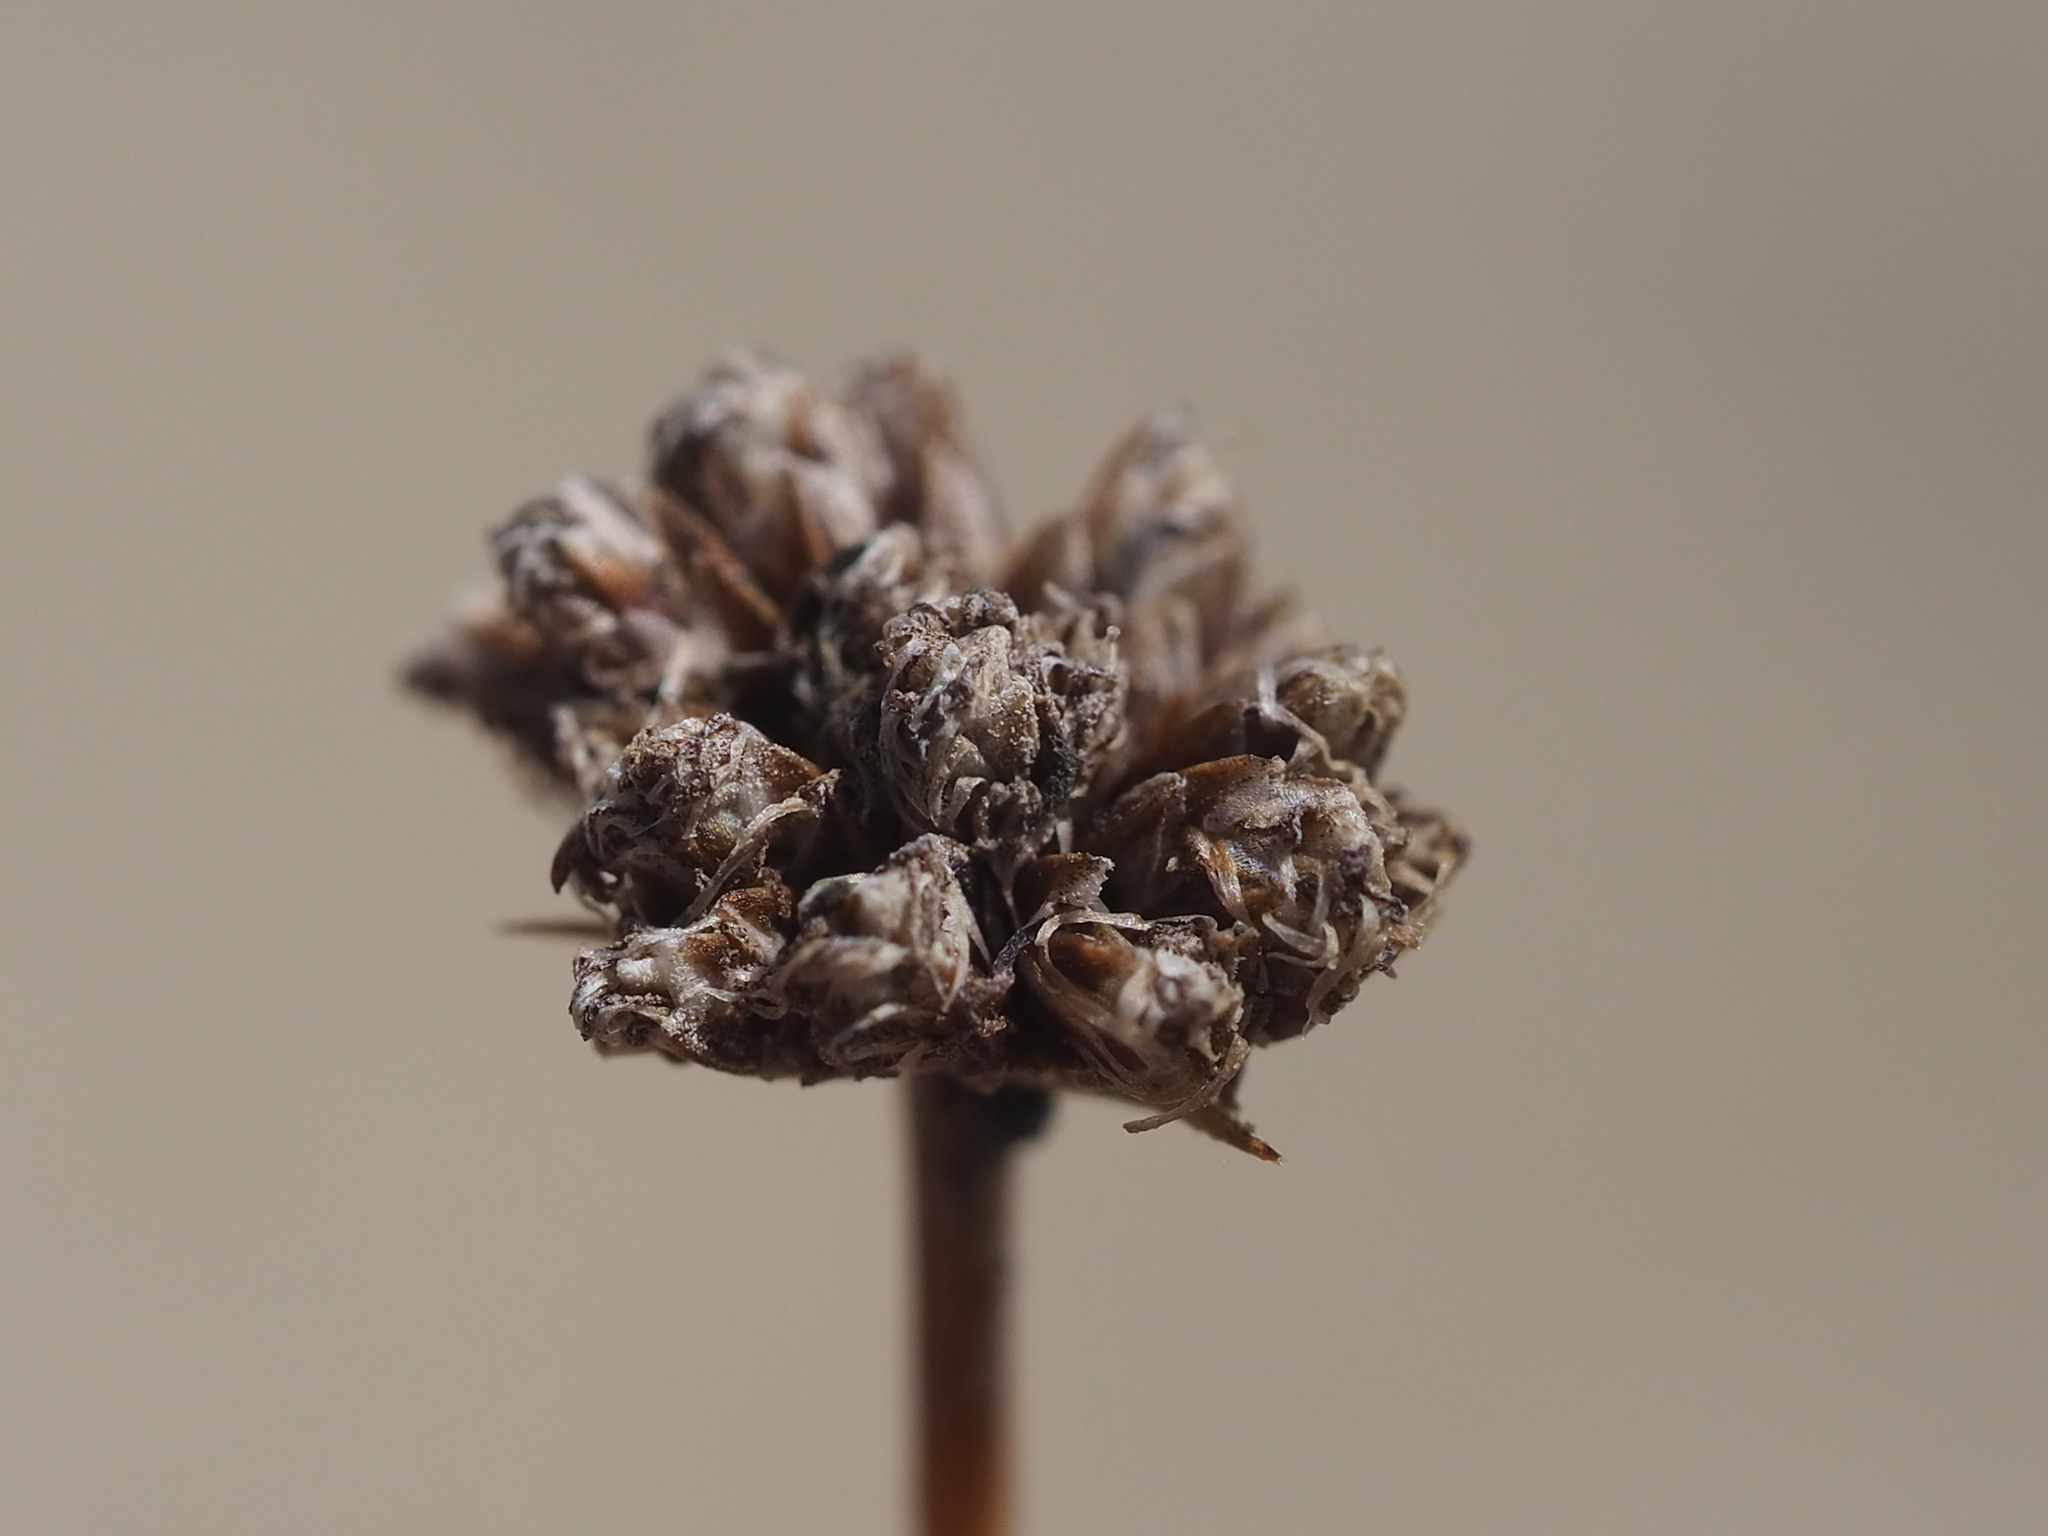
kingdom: Plantae
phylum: Tracheophyta
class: Liliopsida
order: Poales
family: Cyperaceae
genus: Fimbristylis
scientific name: Fimbristylis cymosa
